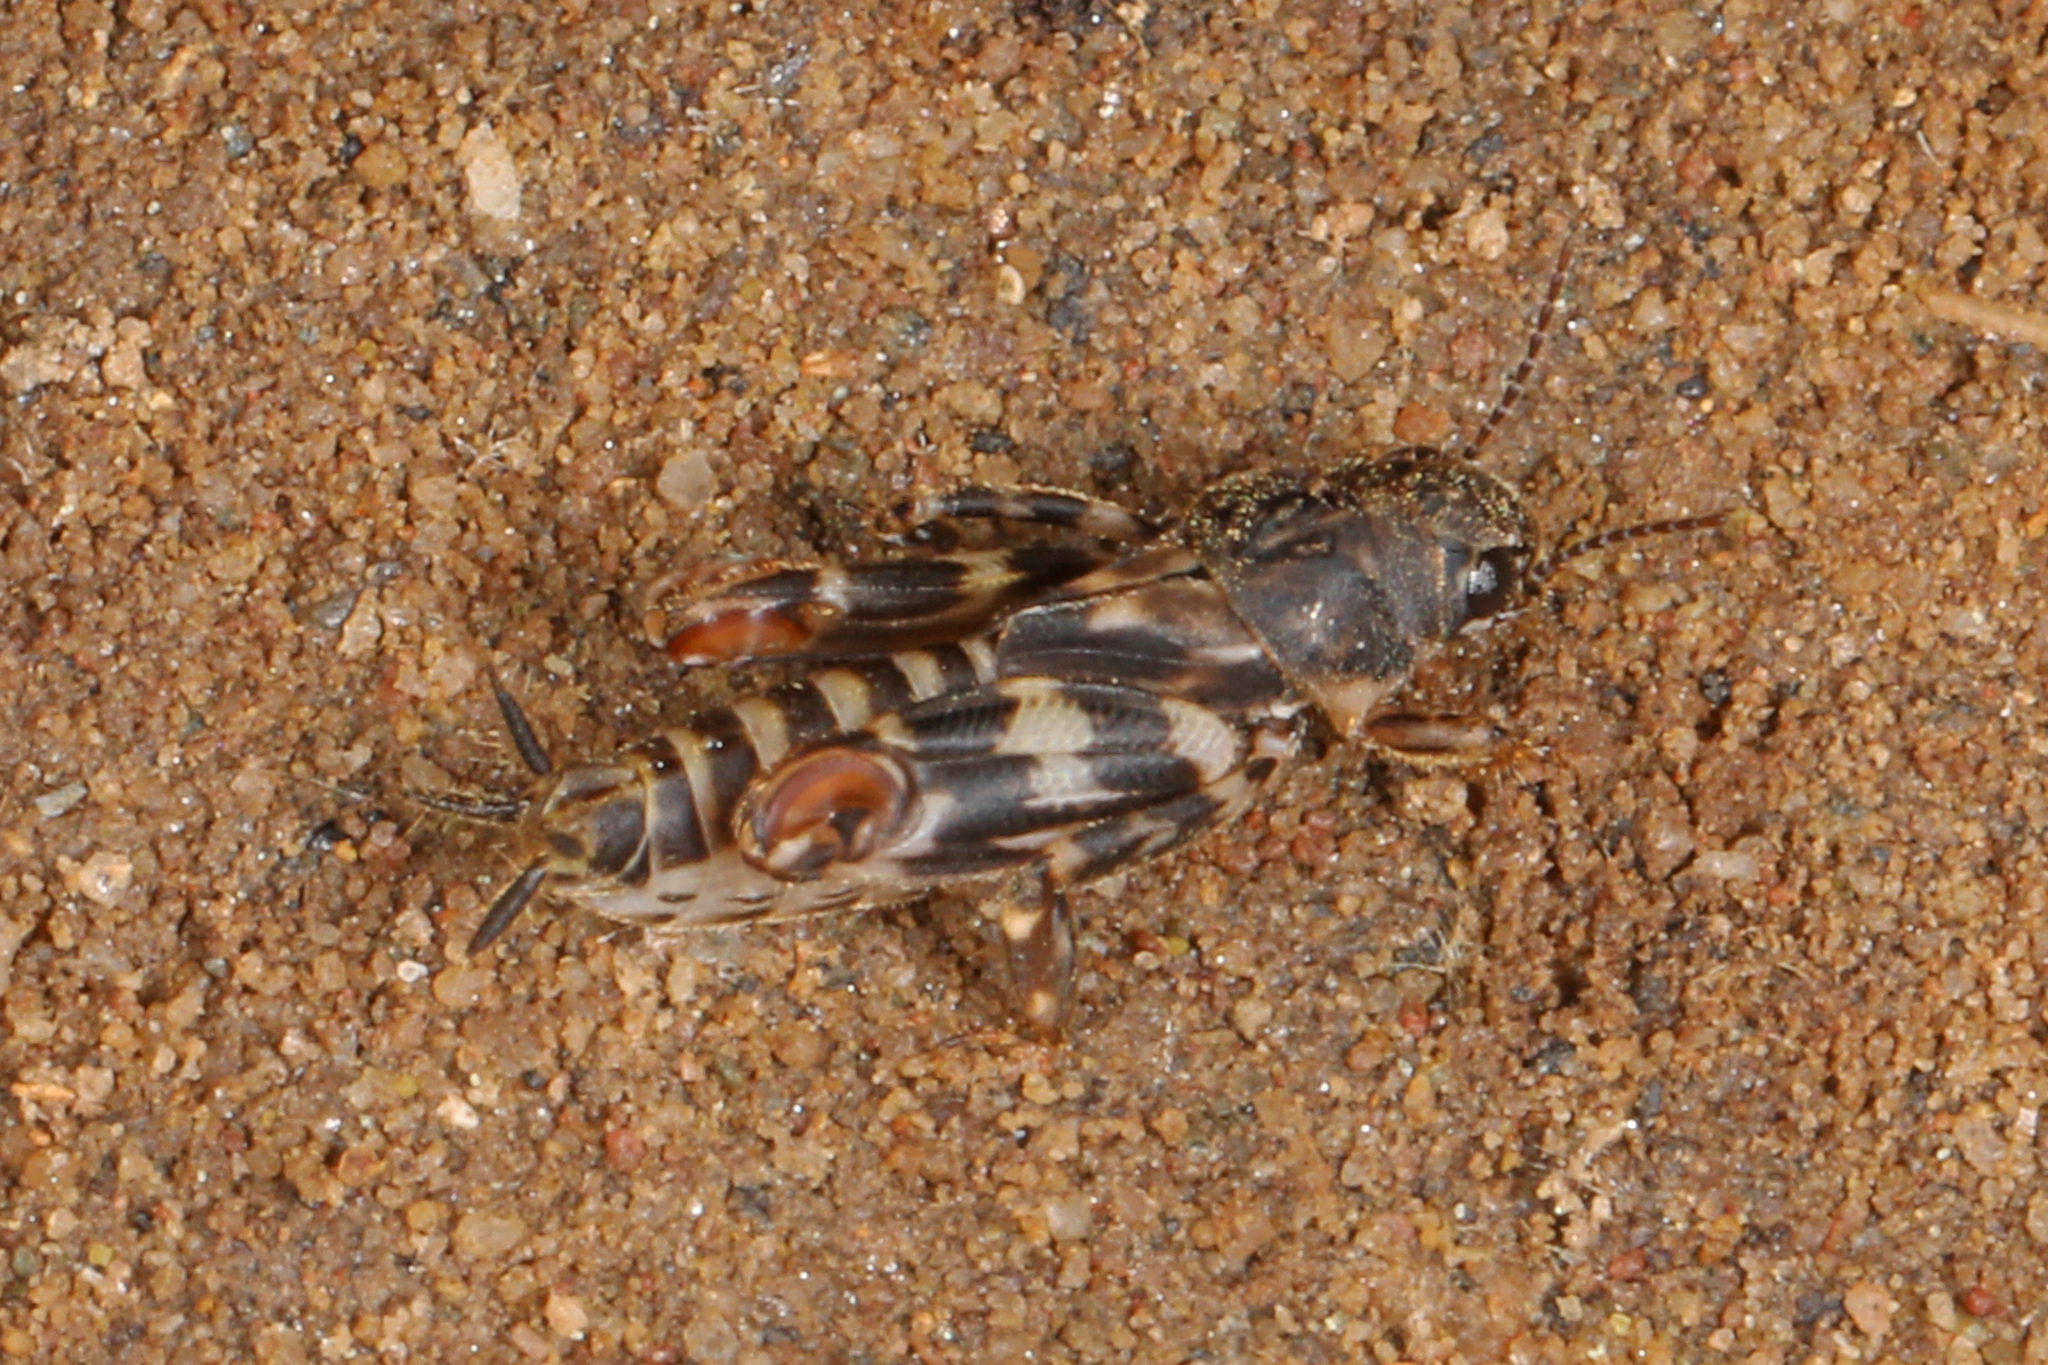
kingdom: Animalia
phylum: Arthropoda
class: Insecta
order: Orthoptera
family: Tridactylidae
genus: Ellipes
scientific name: Ellipes minuta
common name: Minute pygmy locust
